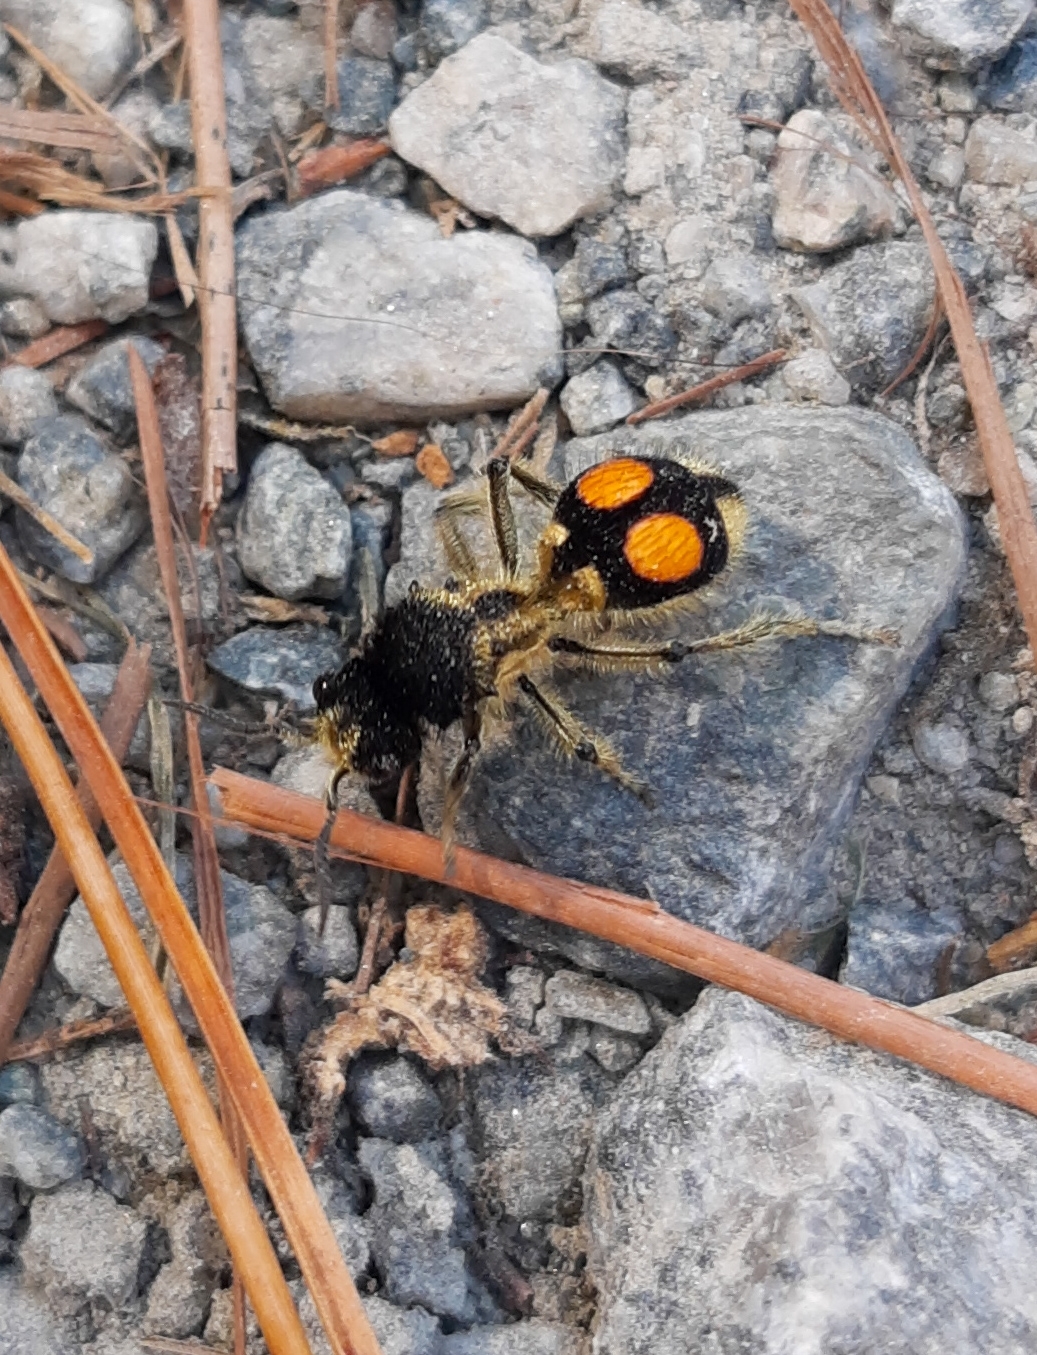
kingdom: Animalia
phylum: Arthropoda
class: Insecta
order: Hymenoptera
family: Mutillidae
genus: Hoplomutilla
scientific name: Hoplomutilla
